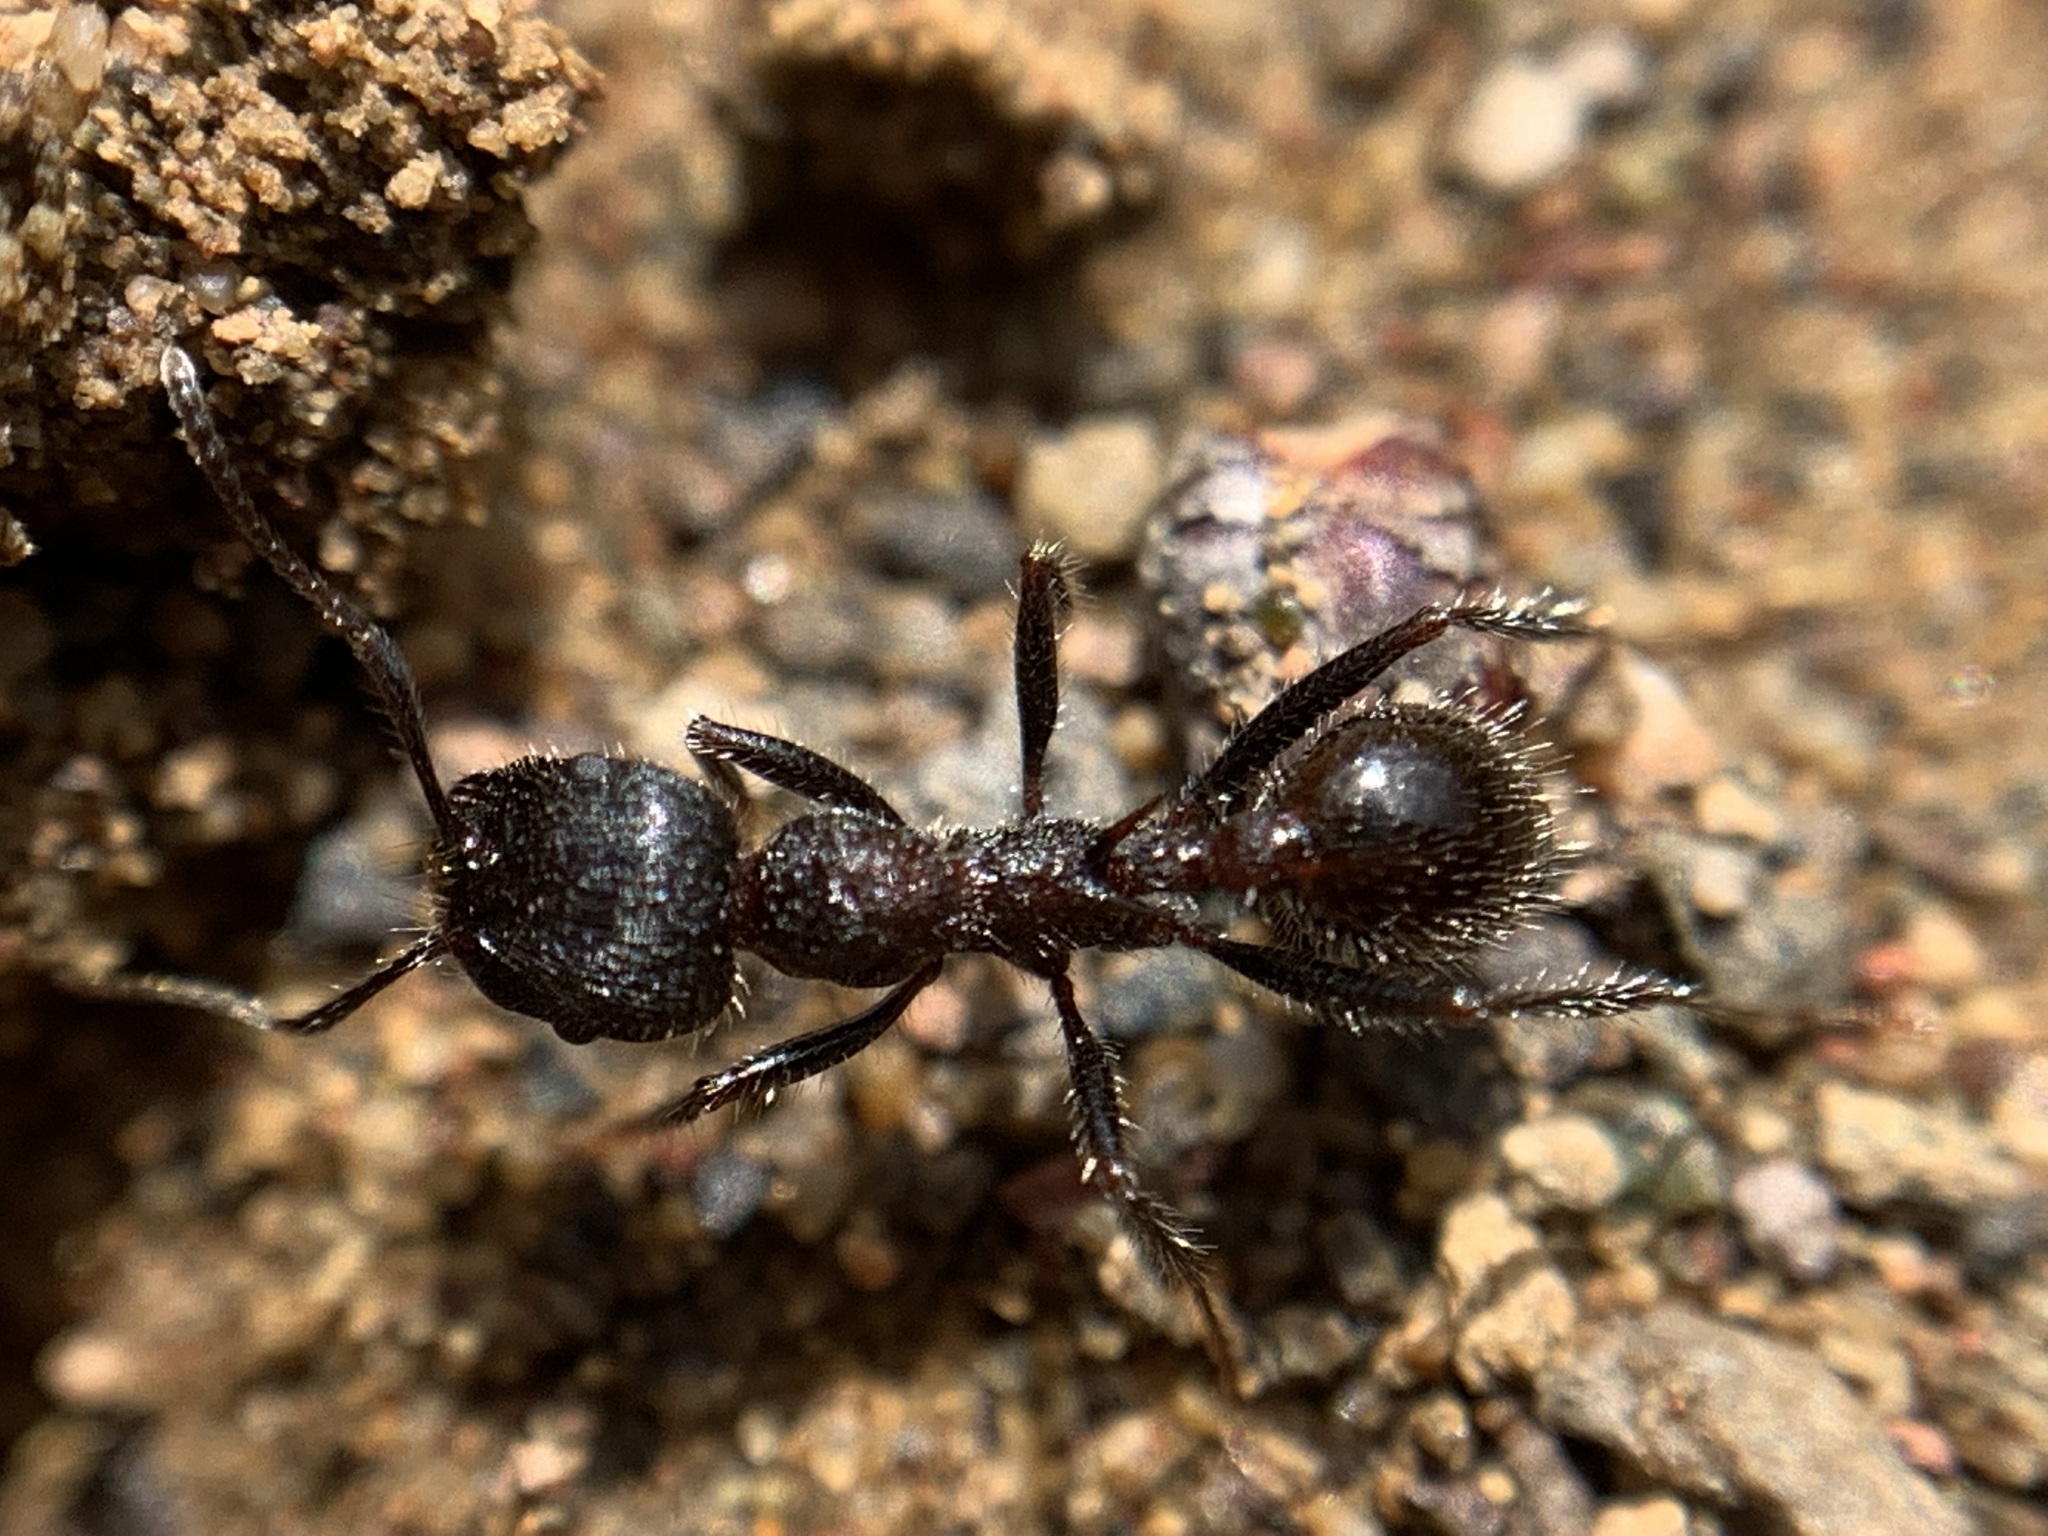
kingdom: Animalia
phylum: Arthropoda
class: Insecta
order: Hymenoptera
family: Formicidae
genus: Veromessor
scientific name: Veromessor andrei
